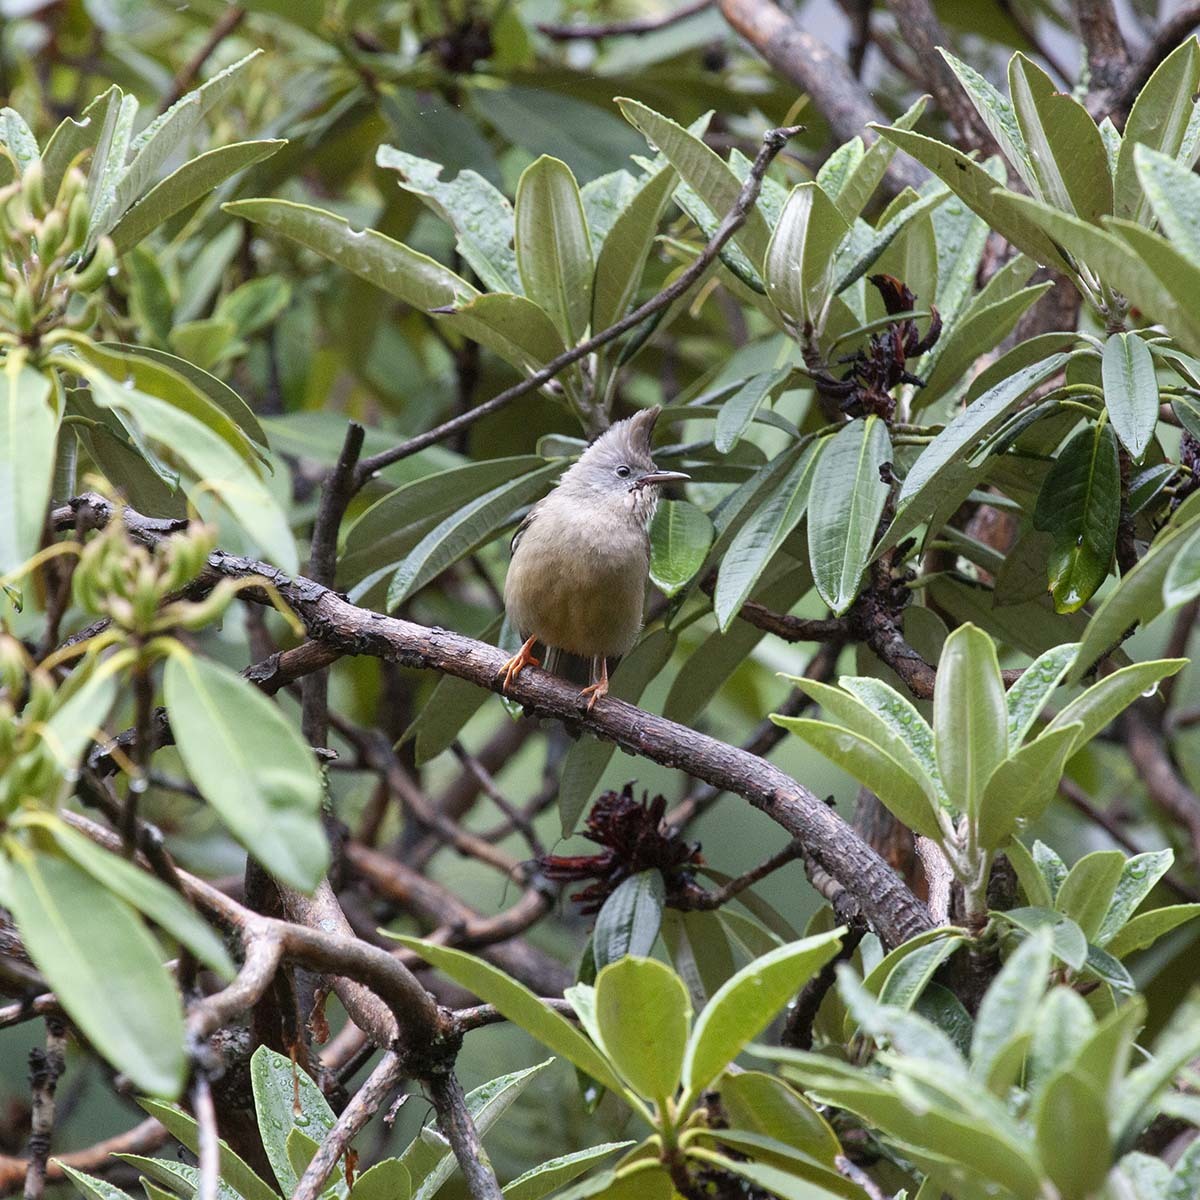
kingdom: Animalia
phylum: Chordata
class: Aves
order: Passeriformes
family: Zosteropidae
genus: Yuhina
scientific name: Yuhina gularis
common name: Stripe-throated yuhina
